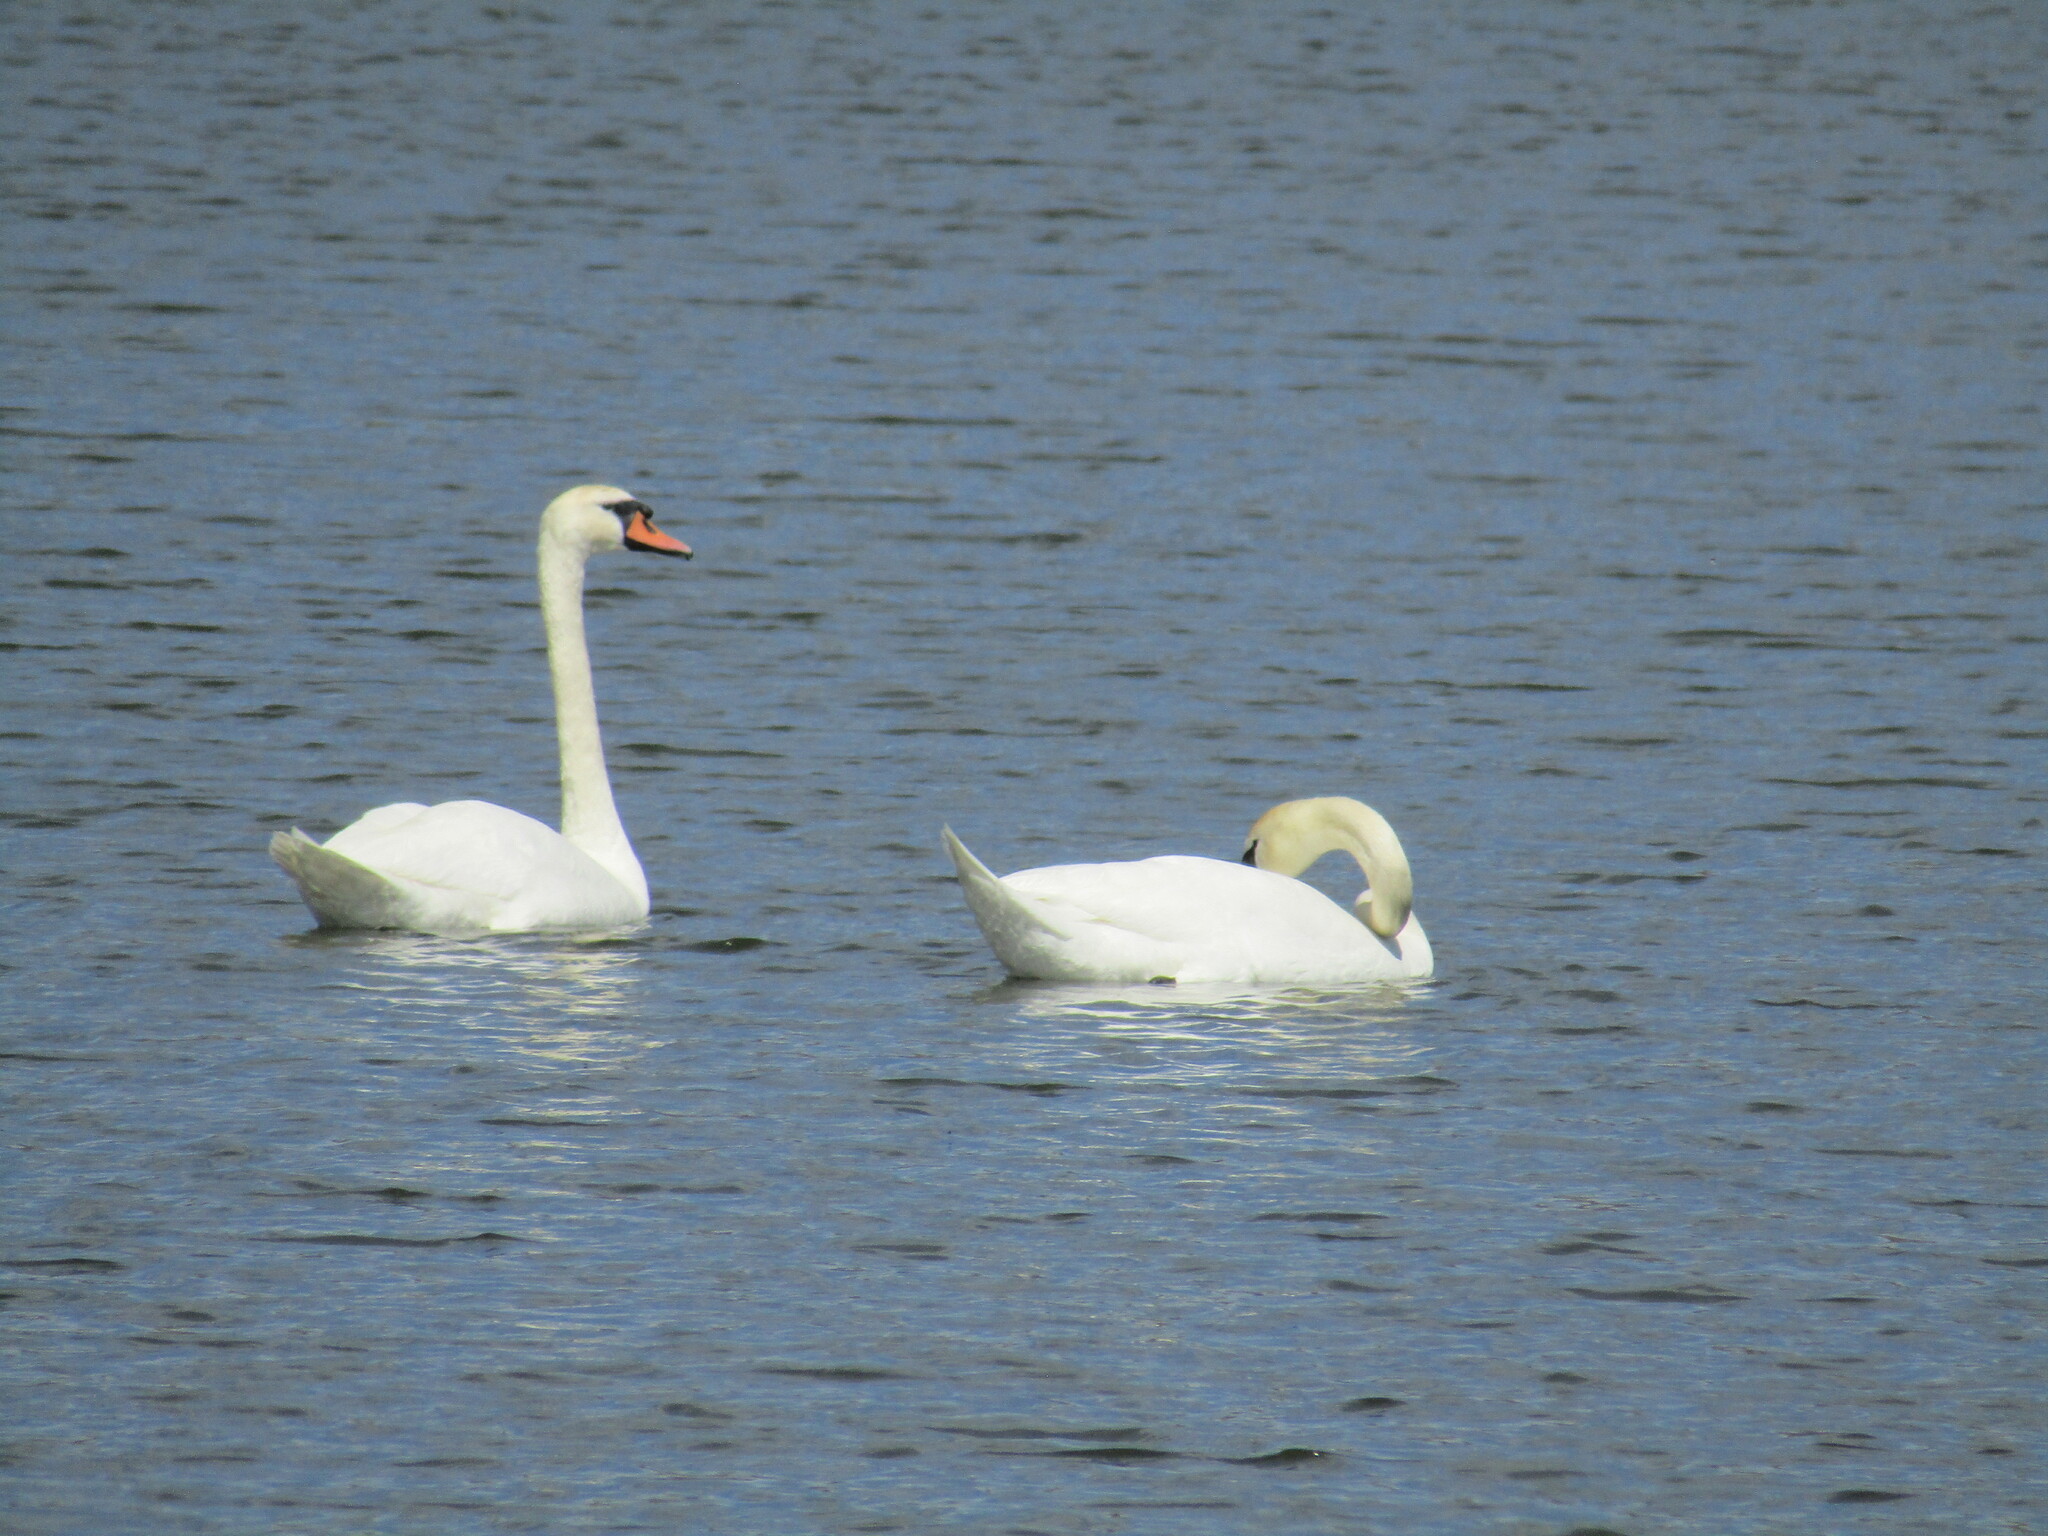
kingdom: Animalia
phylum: Chordata
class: Aves
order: Anseriformes
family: Anatidae
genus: Cygnus
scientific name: Cygnus olor
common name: Mute swan
